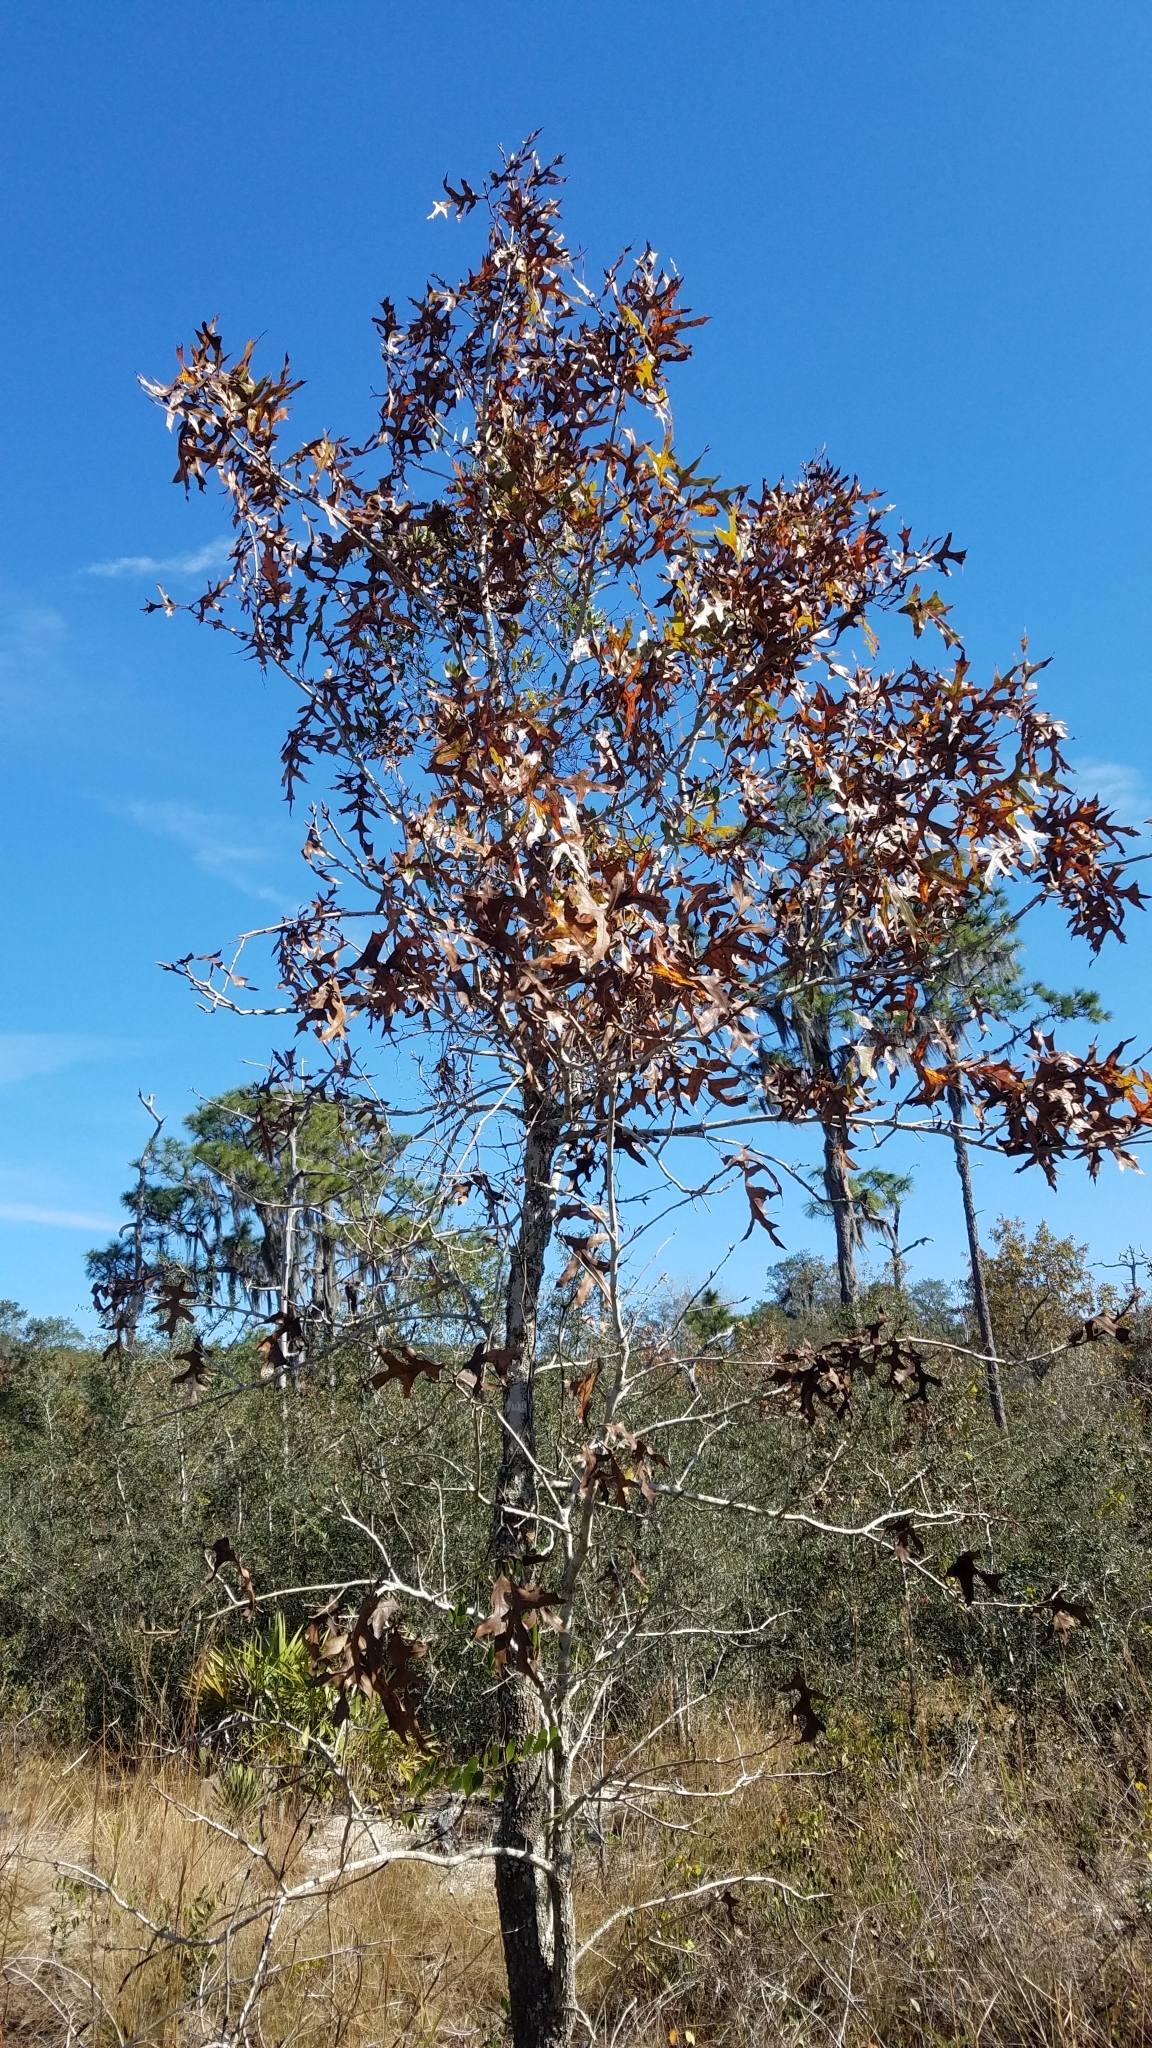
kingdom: Plantae
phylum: Tracheophyta
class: Magnoliopsida
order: Fagales
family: Fagaceae
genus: Quercus
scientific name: Quercus laevis
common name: Turkey oak
